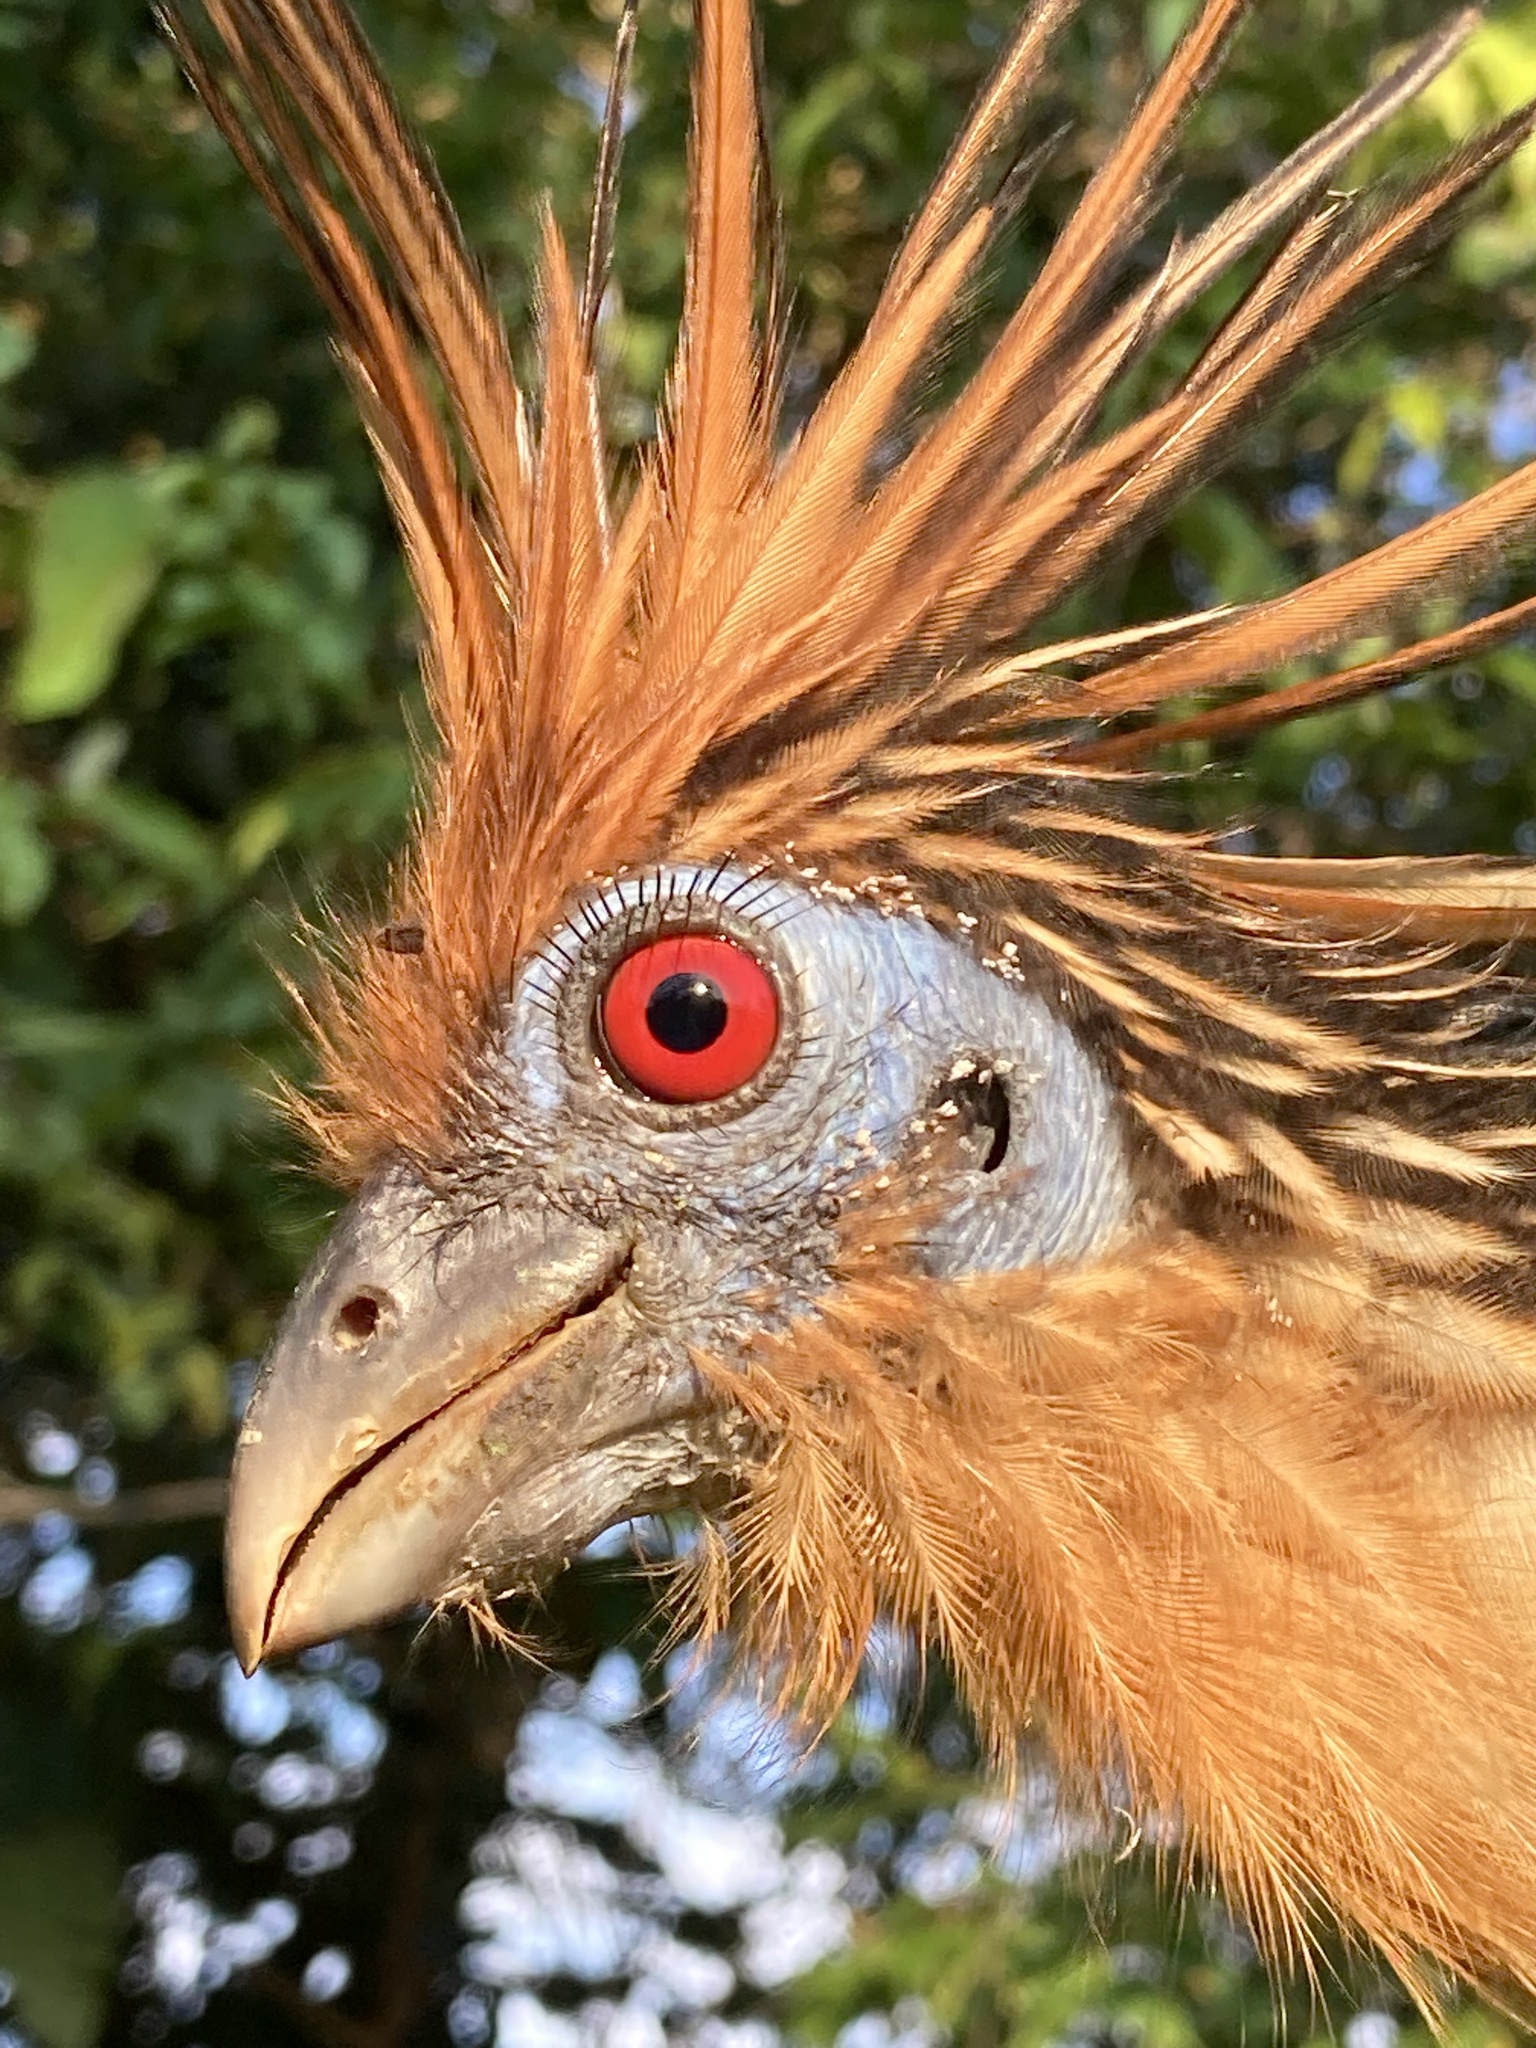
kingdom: Animalia
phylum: Chordata
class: Aves
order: Opisthocomiformes
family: Opisthocomidae
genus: Opisthocomus
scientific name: Opisthocomus hoazin
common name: Hoatzin
